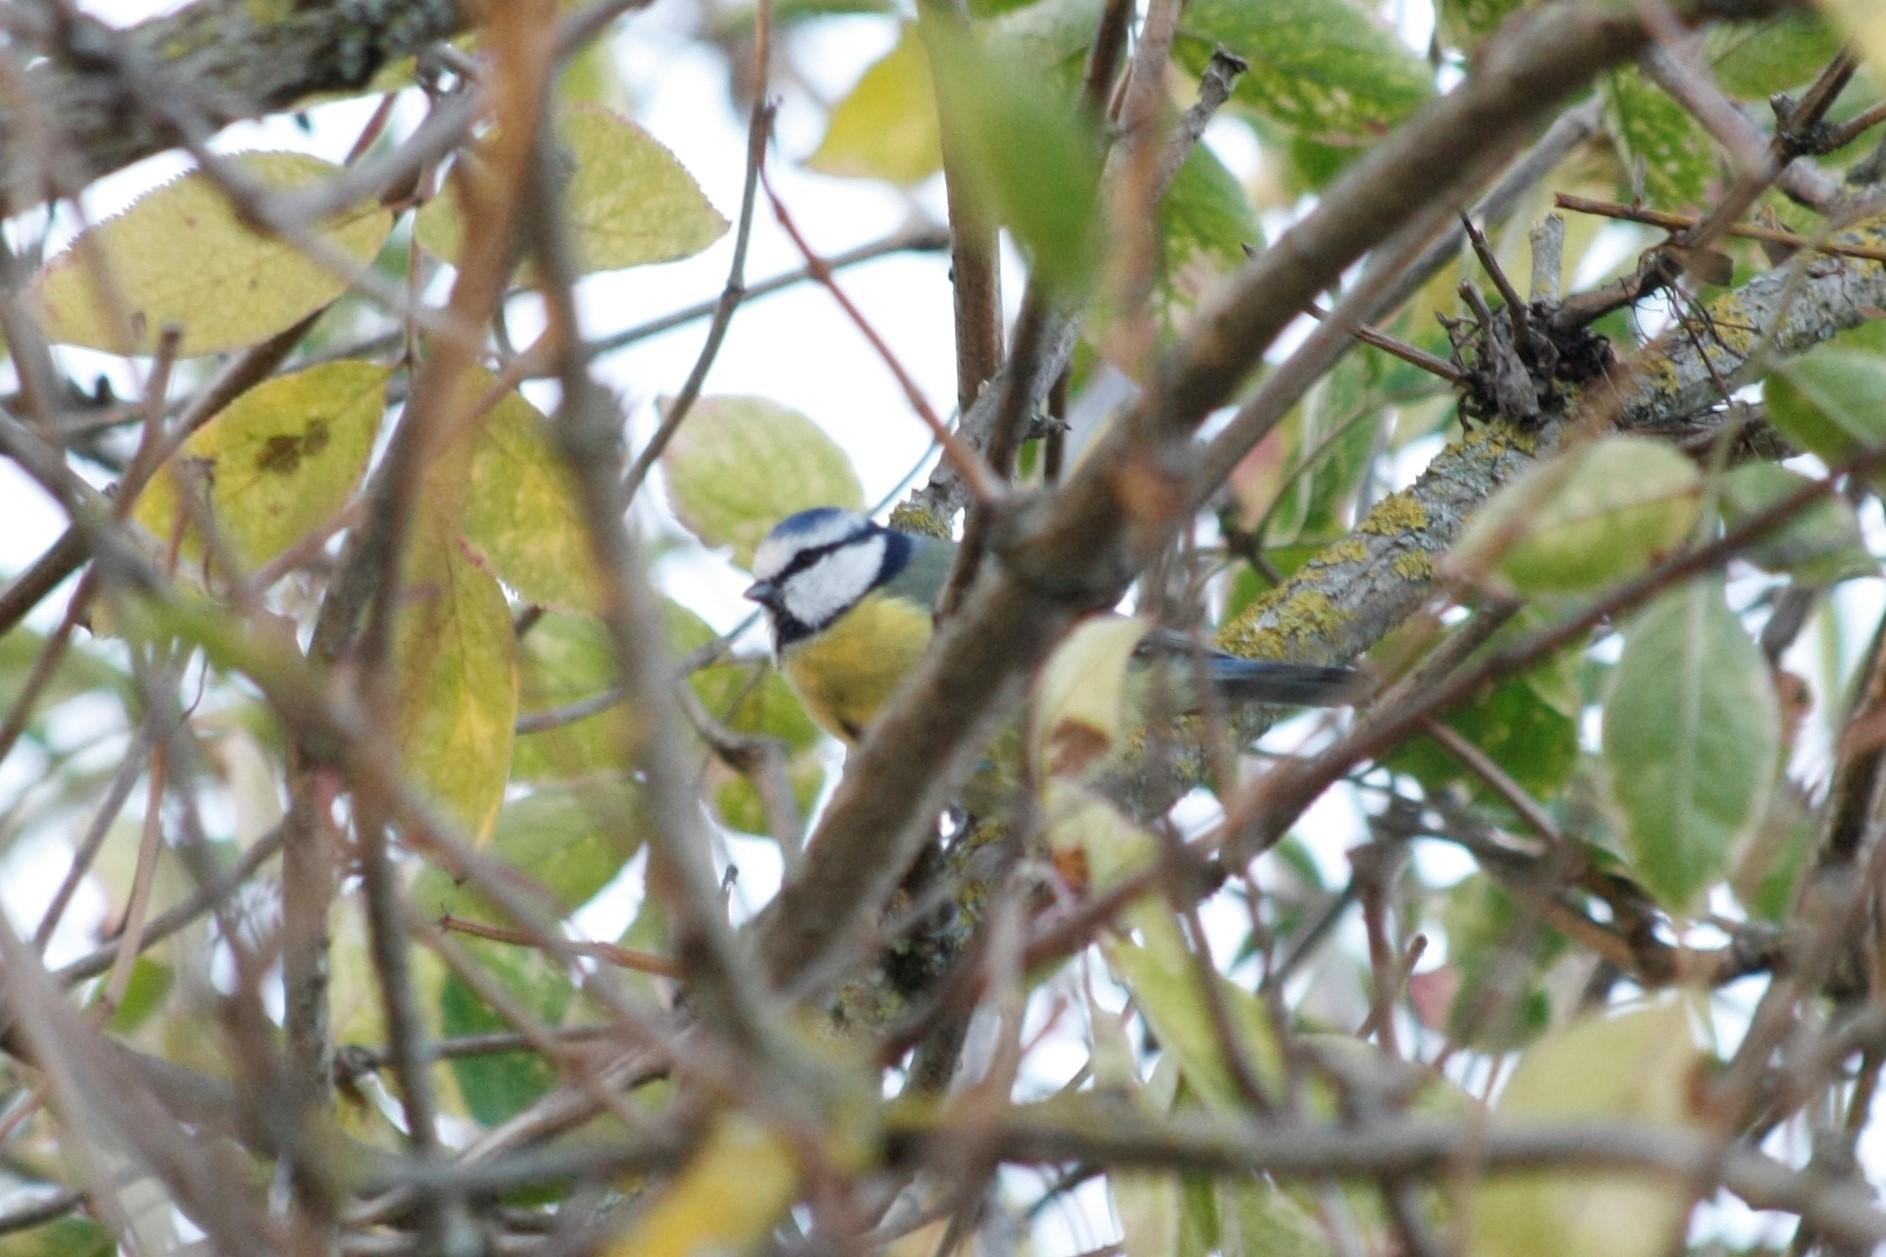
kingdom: Animalia
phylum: Chordata
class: Aves
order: Passeriformes
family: Paridae
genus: Cyanistes
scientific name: Cyanistes caeruleus
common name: Eurasian blue tit
